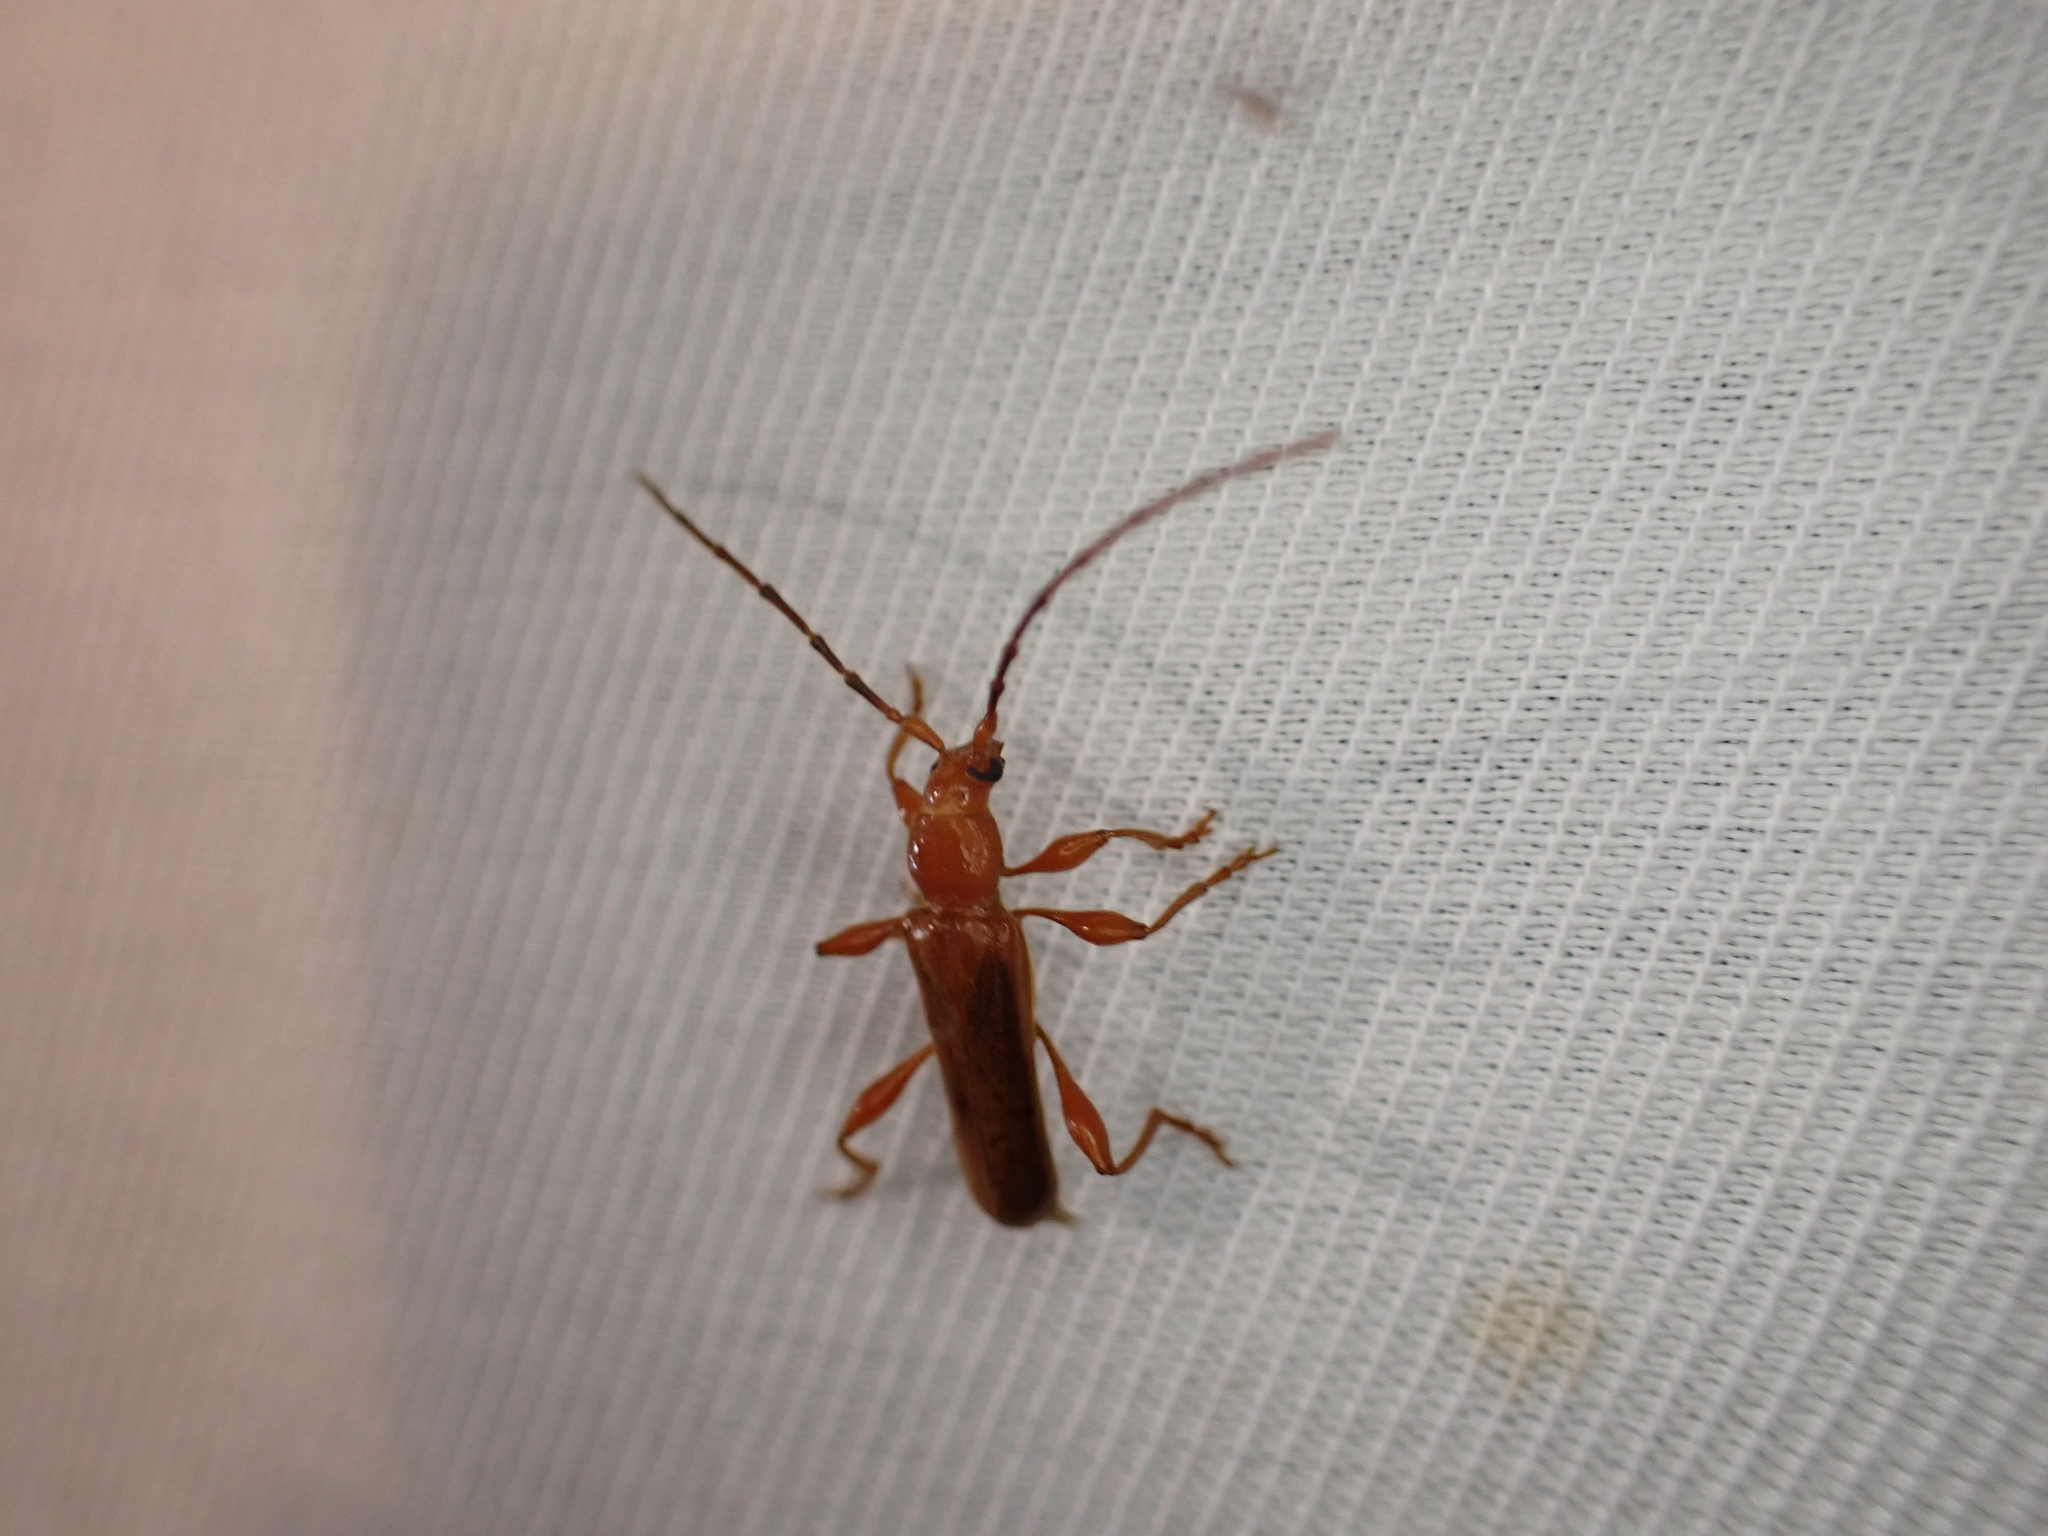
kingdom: Animalia
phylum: Arthropoda
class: Insecta
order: Coleoptera
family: Cerambycidae
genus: Leioderes
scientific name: Leioderes kollari
